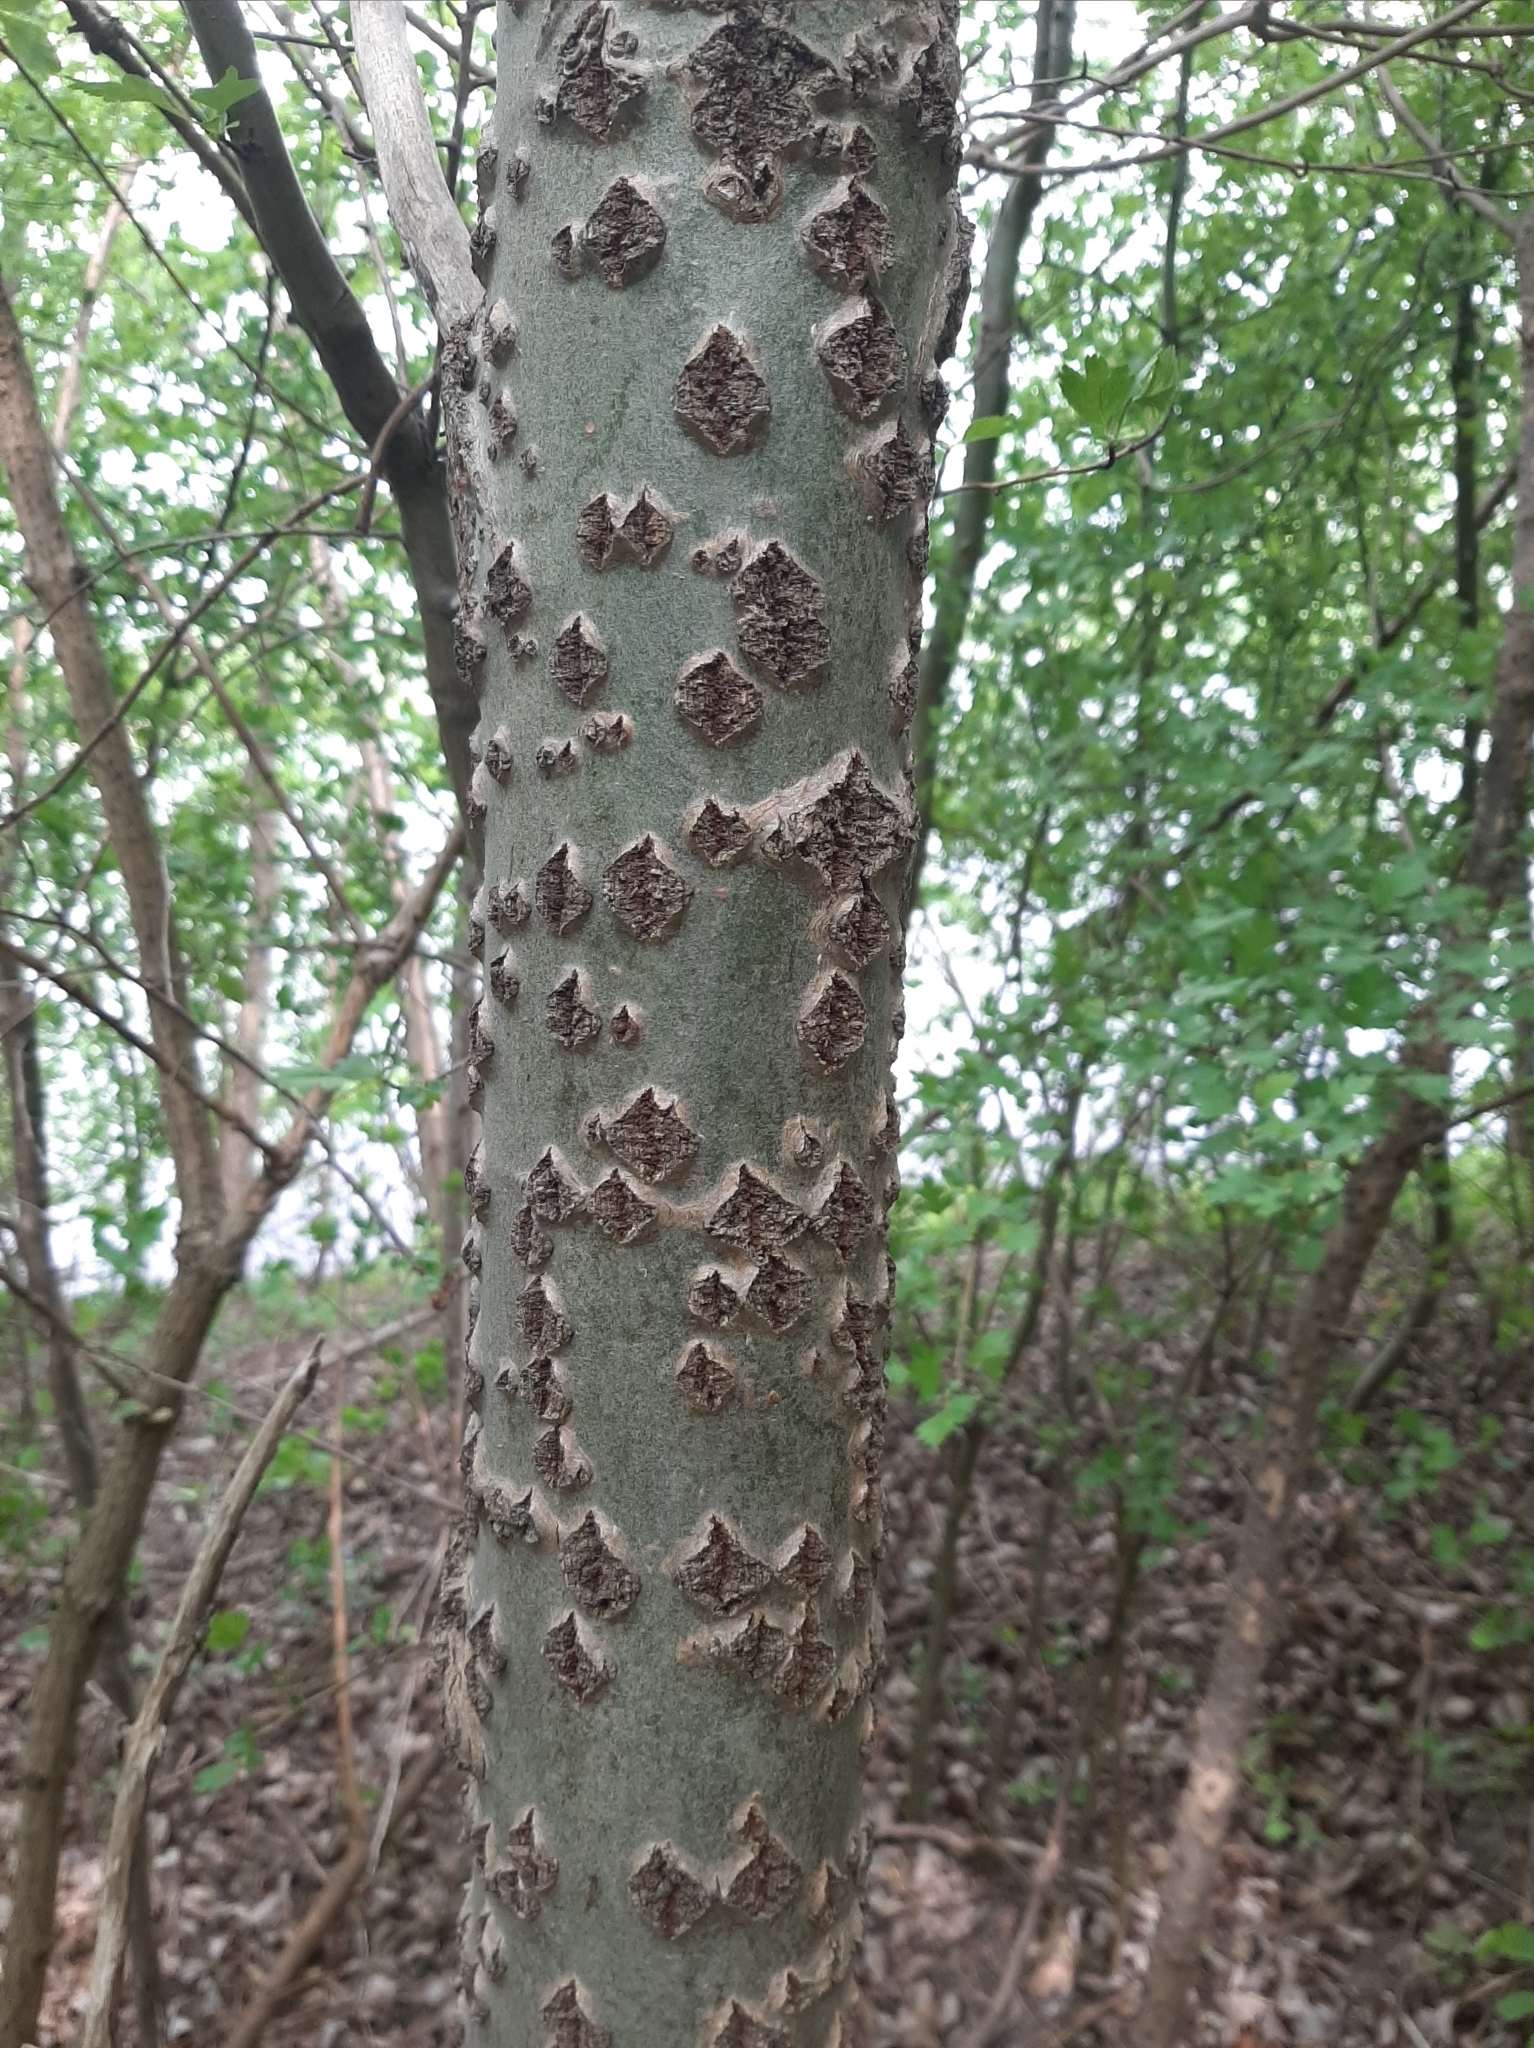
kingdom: Plantae
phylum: Tracheophyta
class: Magnoliopsida
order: Malpighiales
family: Salicaceae
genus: Populus
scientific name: Populus alba
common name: White poplar
